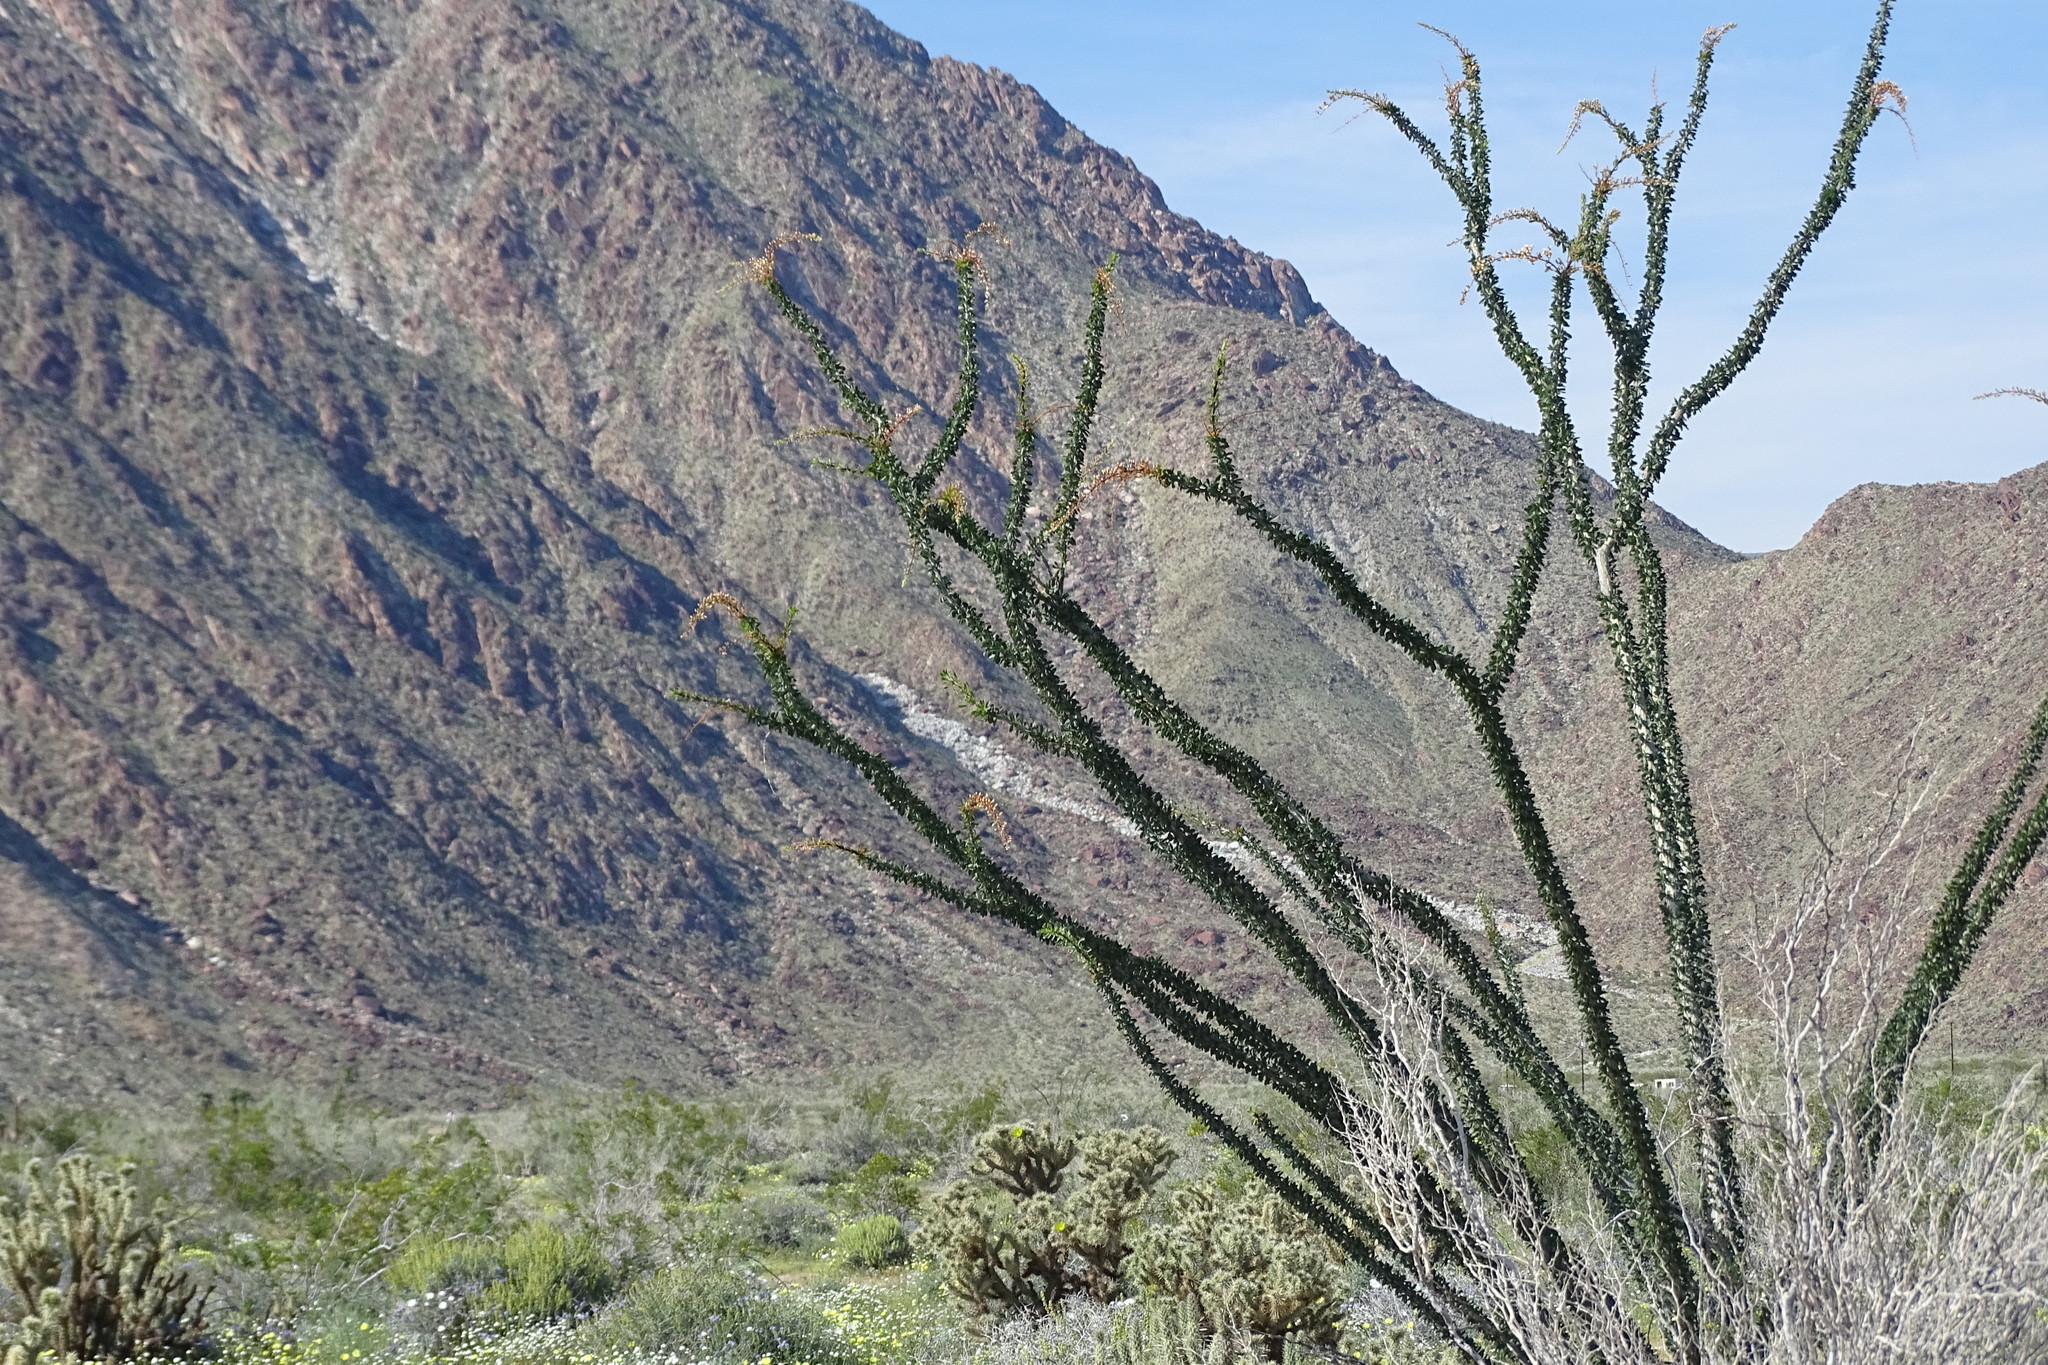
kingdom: Plantae
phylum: Tracheophyta
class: Magnoliopsida
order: Ericales
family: Fouquieriaceae
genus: Fouquieria
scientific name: Fouquieria splendens
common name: Vine-cactus
